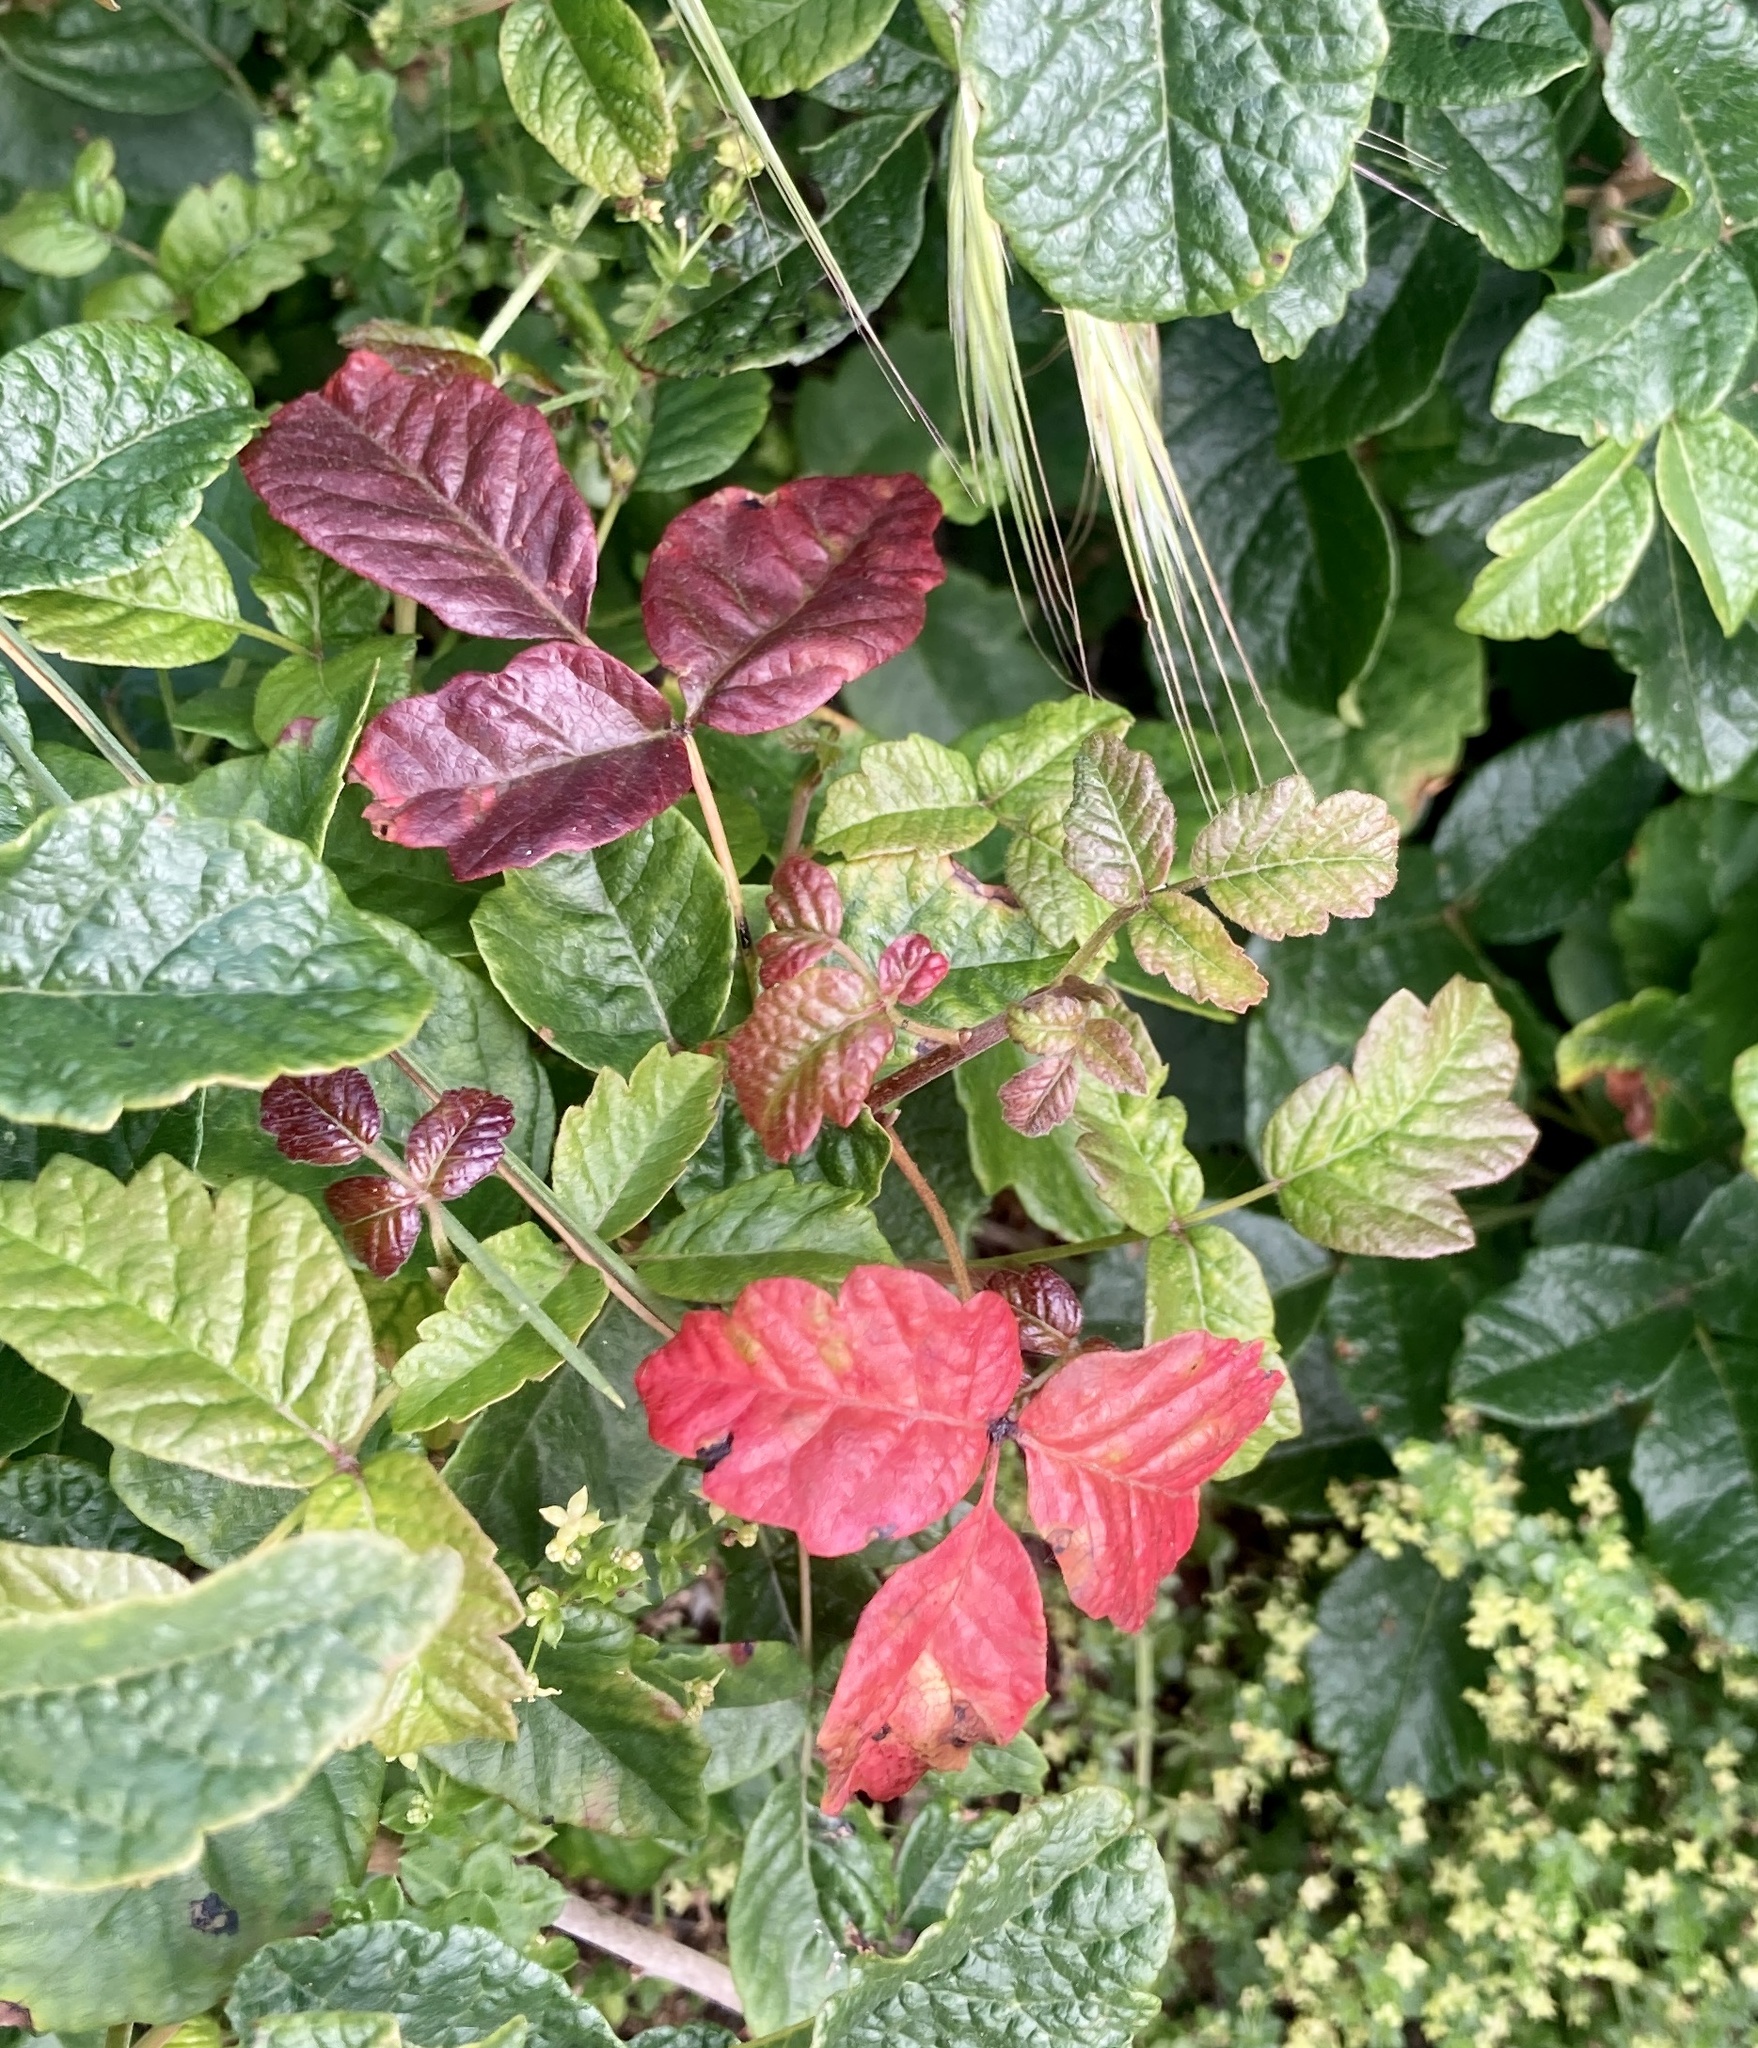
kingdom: Plantae
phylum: Tracheophyta
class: Magnoliopsida
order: Sapindales
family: Anacardiaceae
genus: Toxicodendron
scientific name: Toxicodendron diversilobum
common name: Pacific poison-oak
